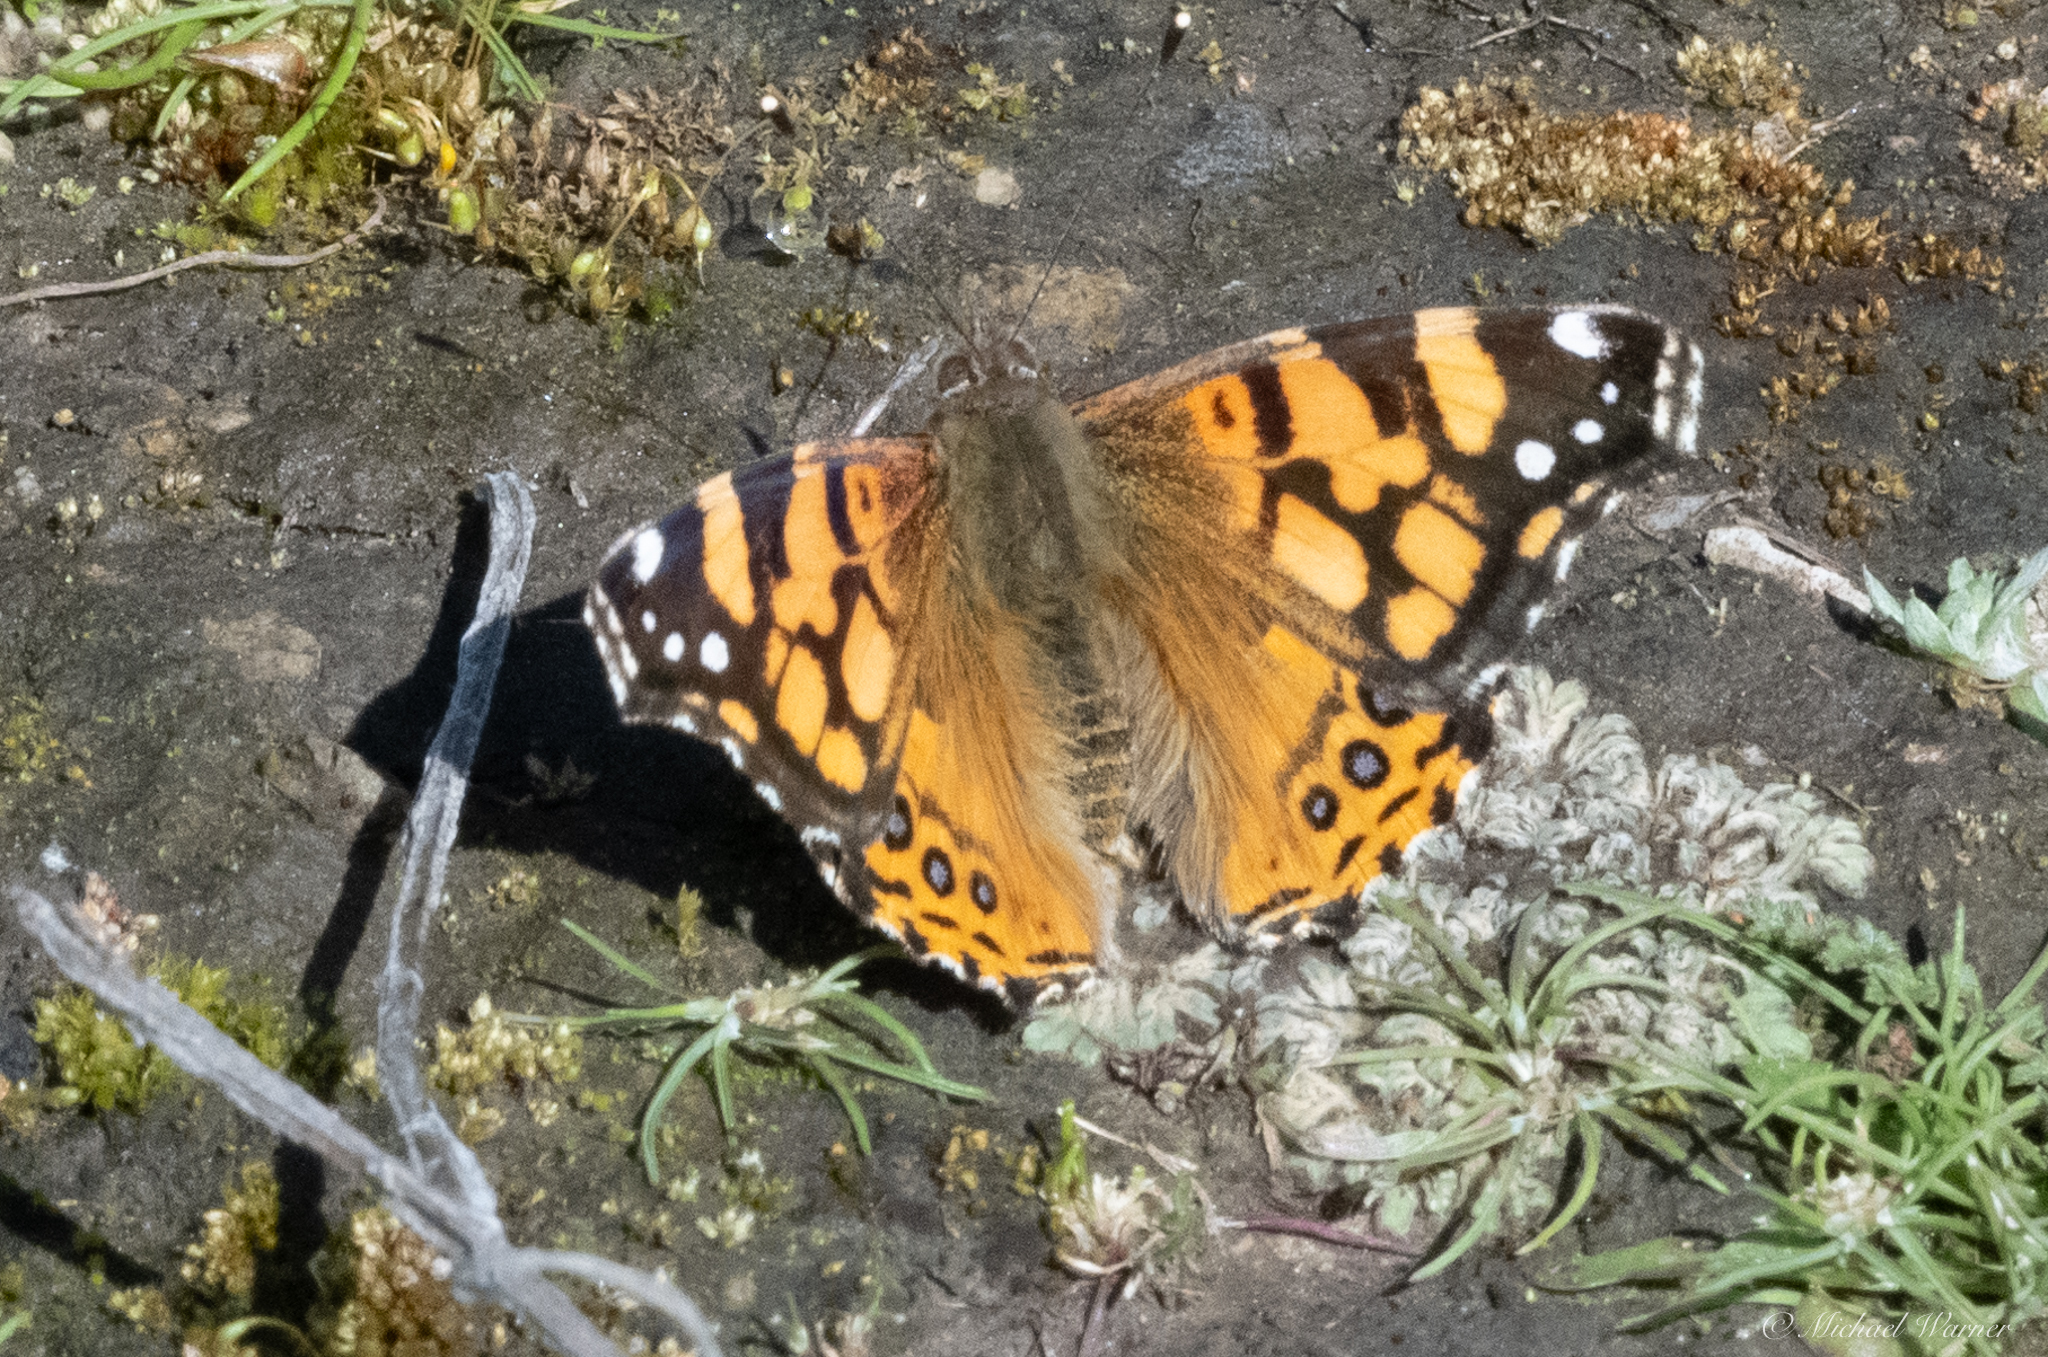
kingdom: Animalia
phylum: Arthropoda
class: Insecta
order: Lepidoptera
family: Nymphalidae
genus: Vanessa
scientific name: Vanessa annabella
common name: West coast lady
